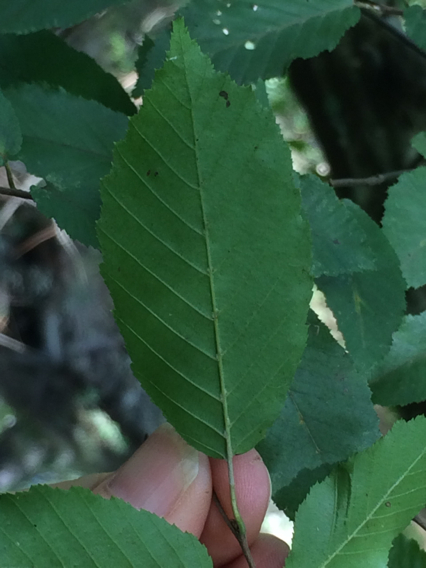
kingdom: Plantae
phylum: Tracheophyta
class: Magnoliopsida
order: Fagales
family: Betulaceae
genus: Carpinus
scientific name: Carpinus caroliniana
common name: American hornbeam
